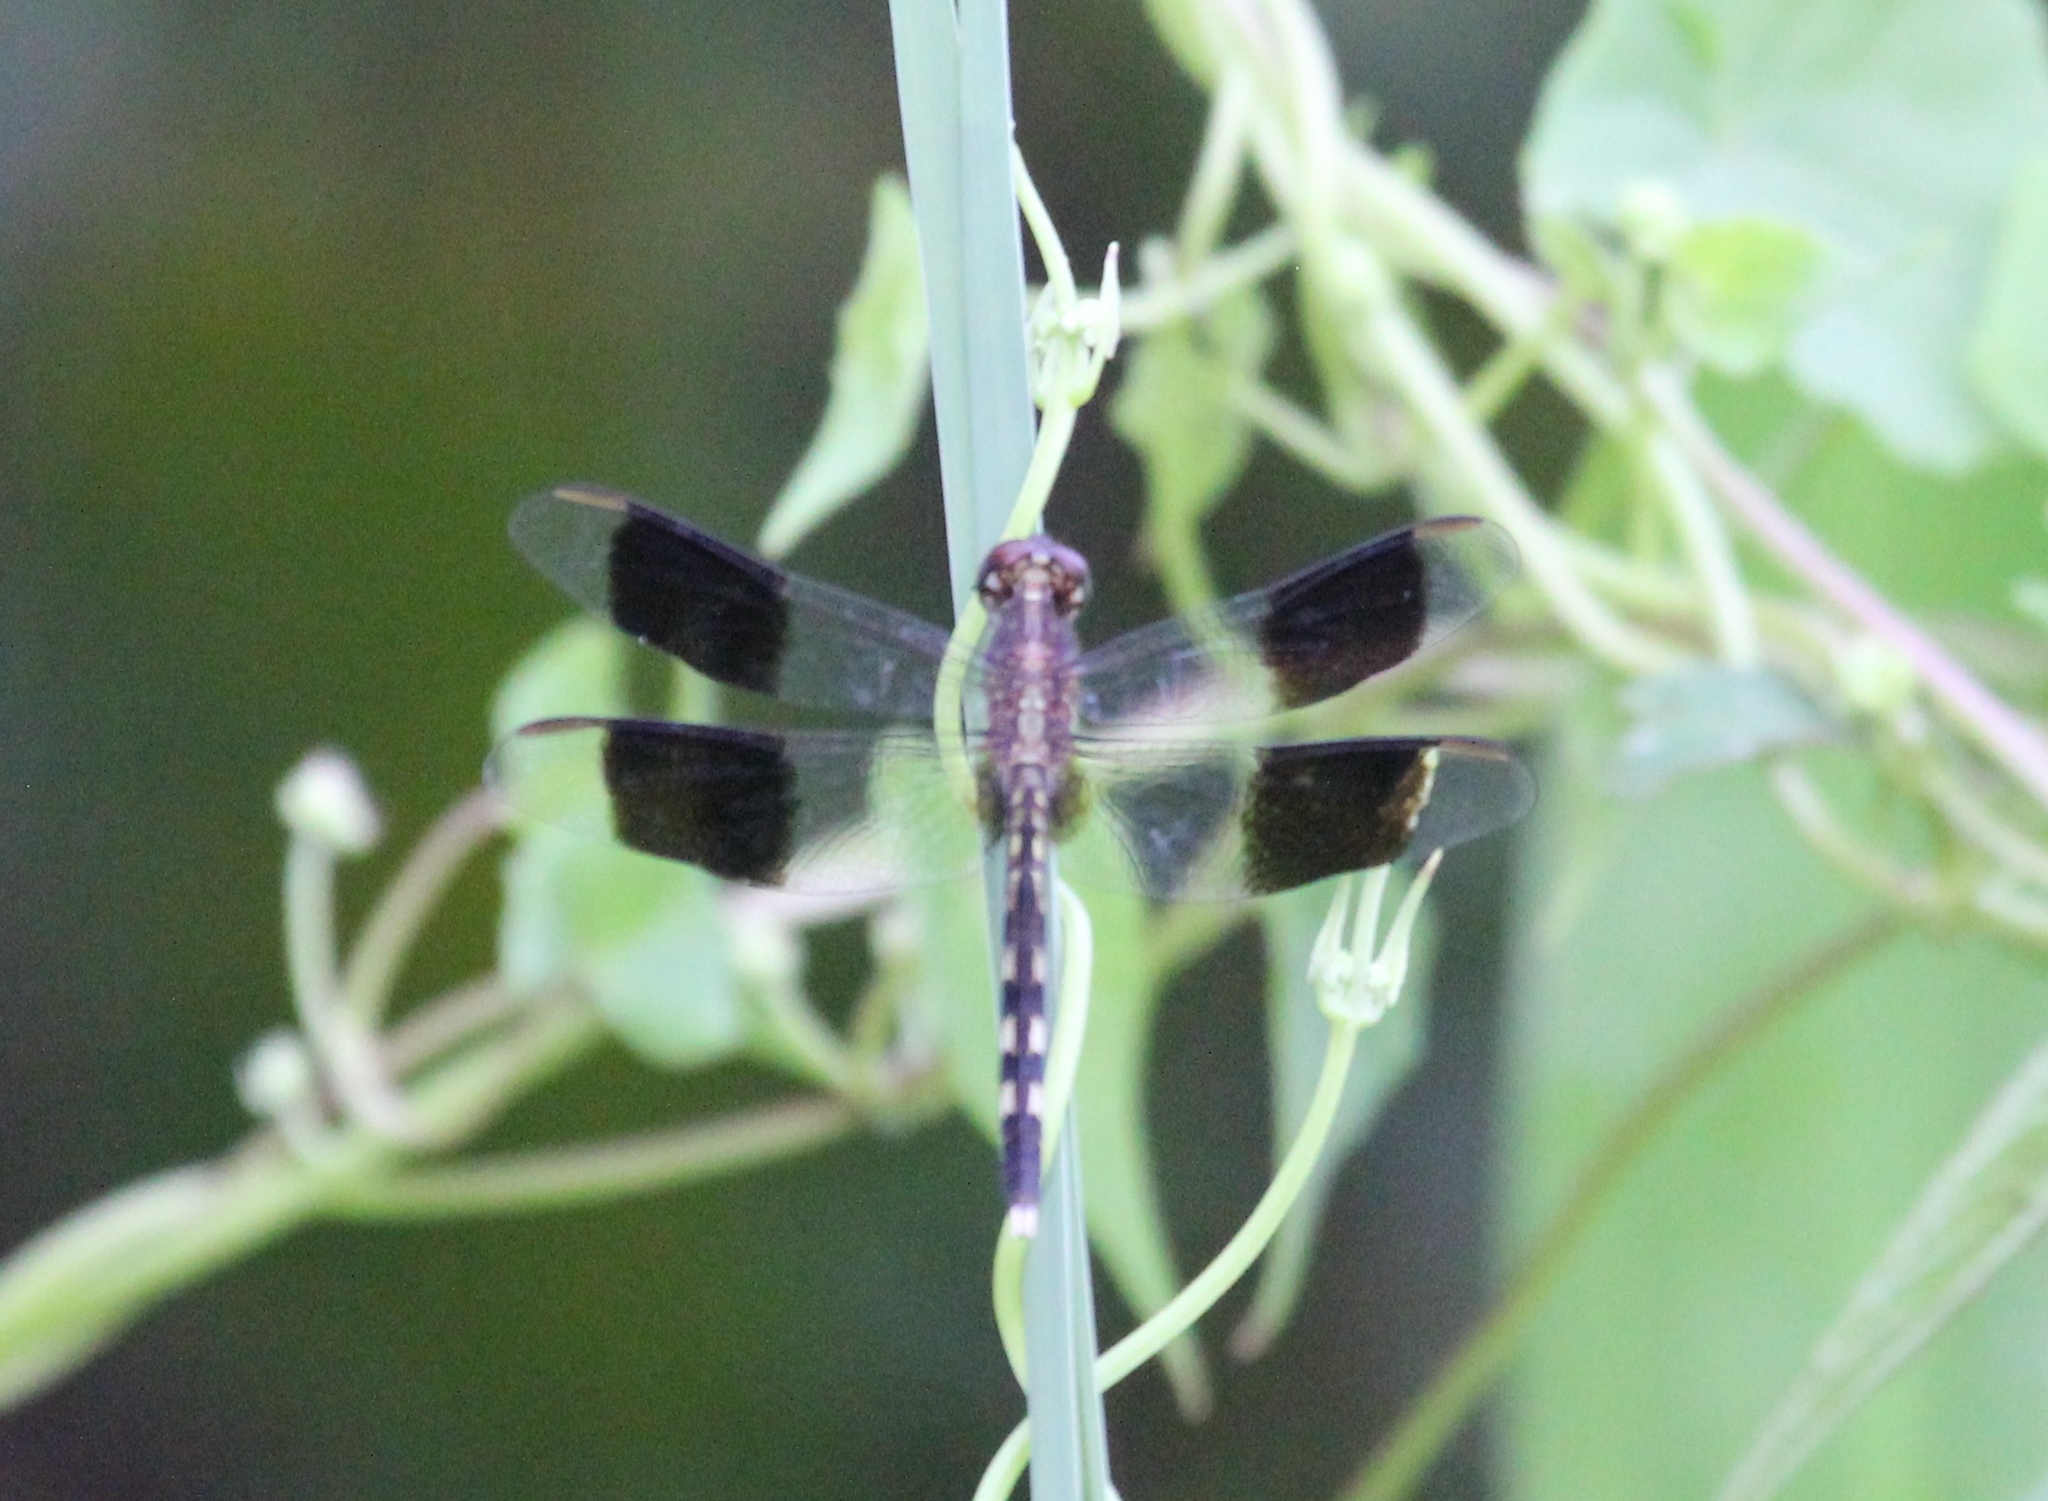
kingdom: Animalia
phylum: Arthropoda
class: Insecta
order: Odonata
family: Libellulidae
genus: Erythrodiplax
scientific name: Erythrodiplax umbrata
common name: Band-winged dragonlet
